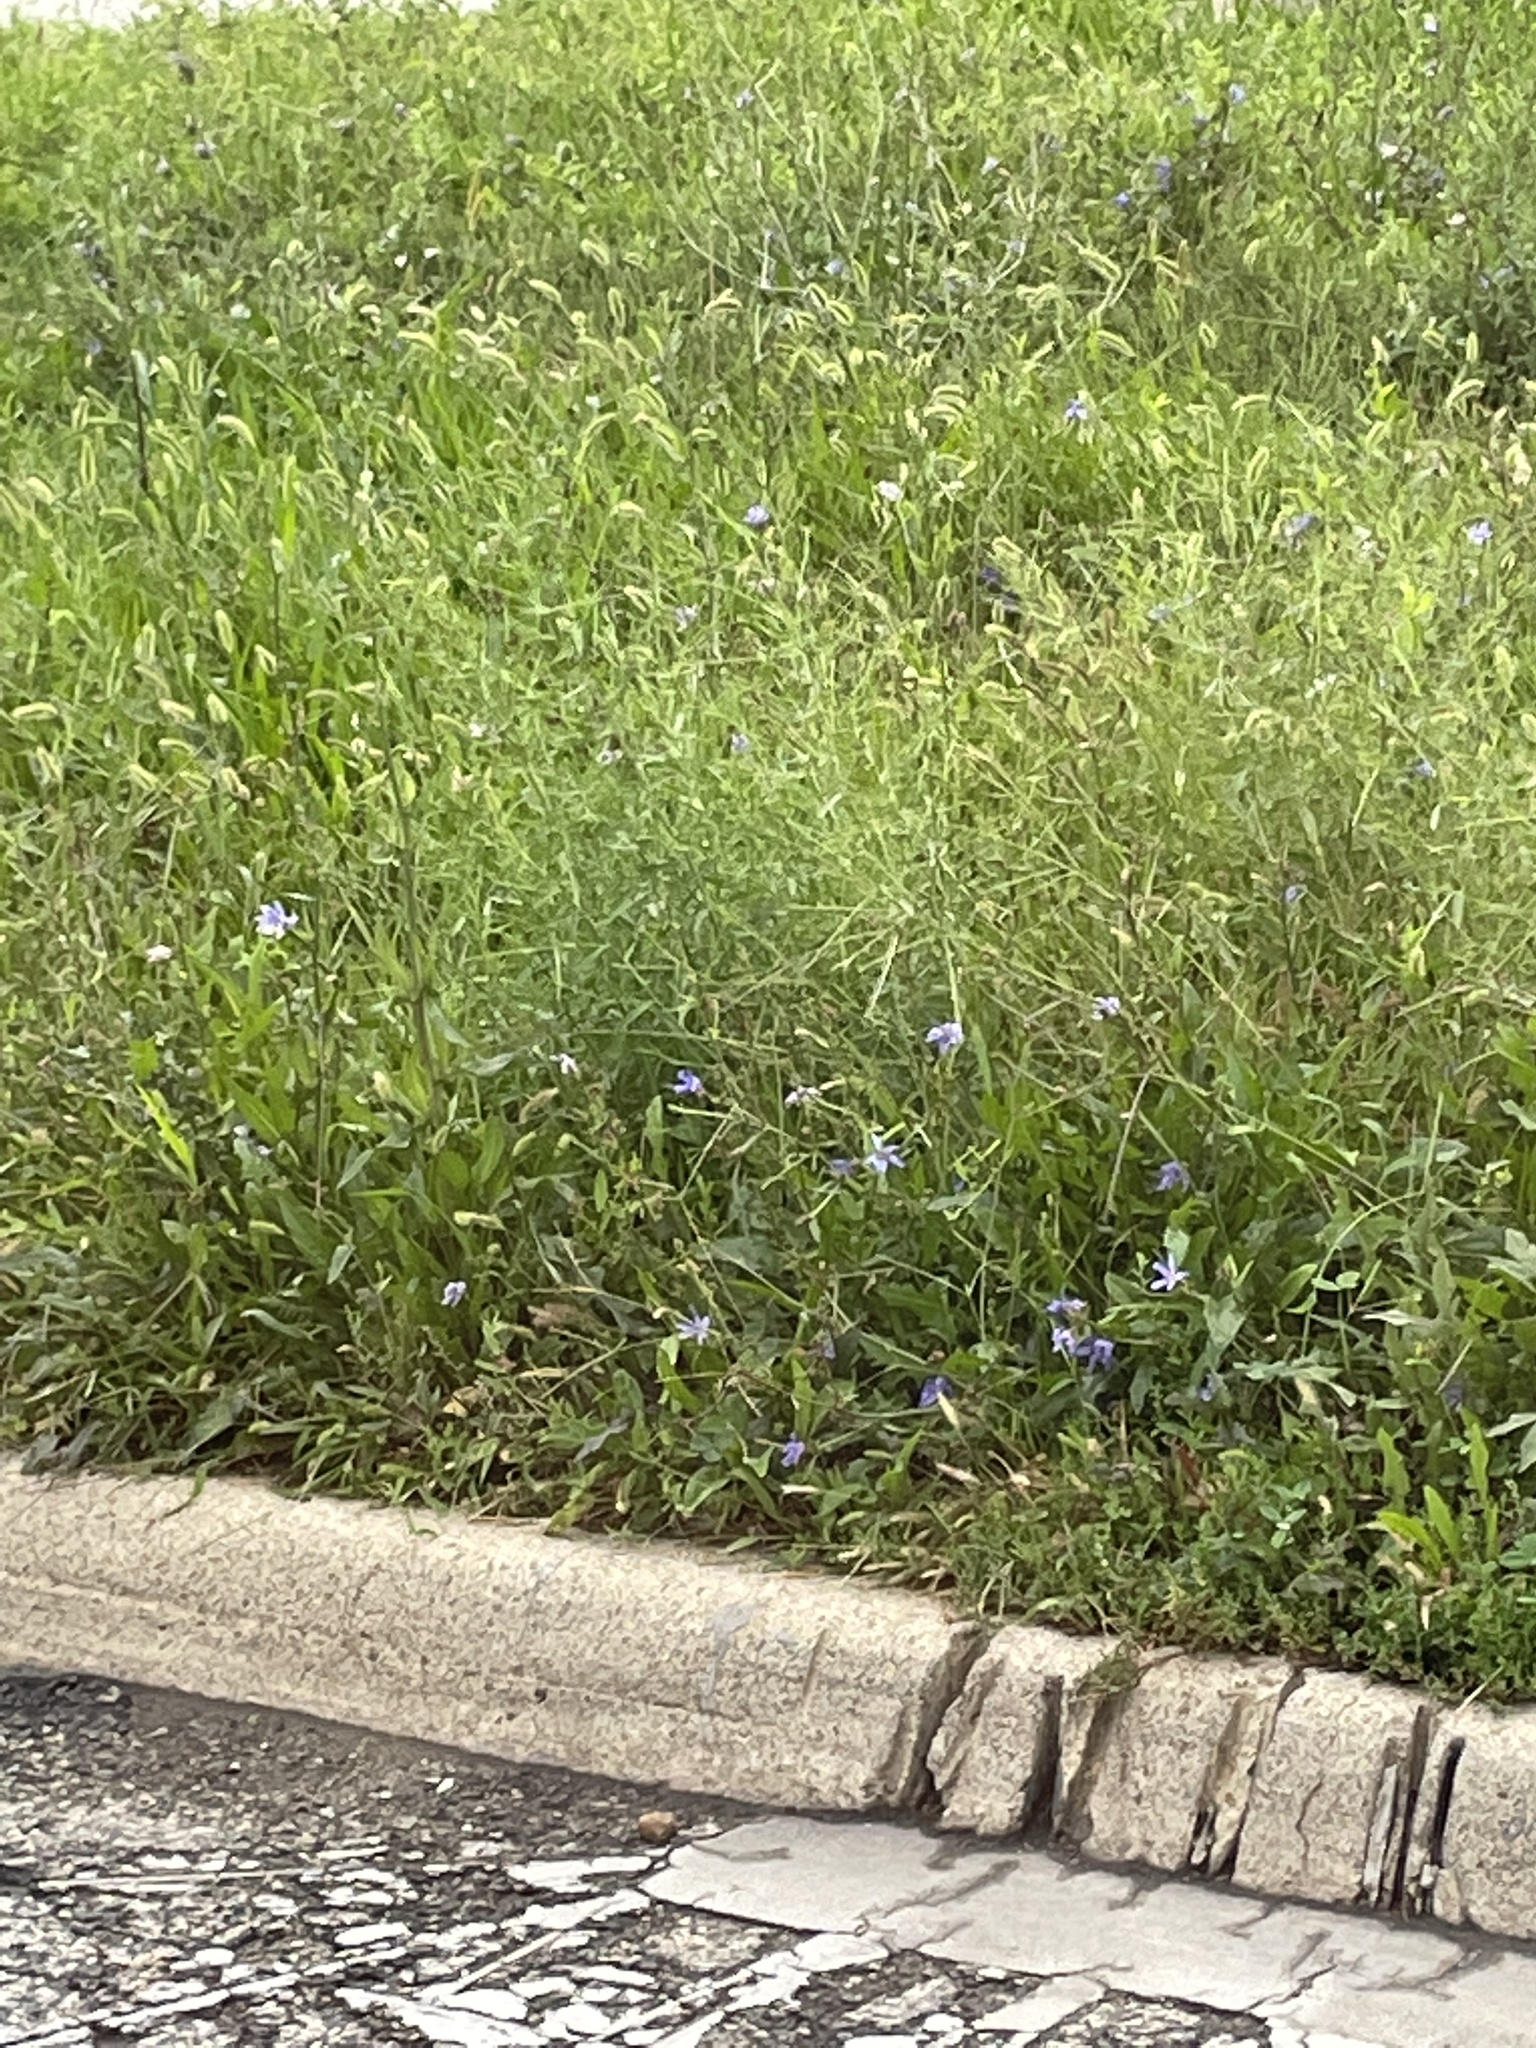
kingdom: Plantae
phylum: Tracheophyta
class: Magnoliopsida
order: Asterales
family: Asteraceae
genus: Cichorium
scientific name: Cichorium intybus
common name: Chicory
